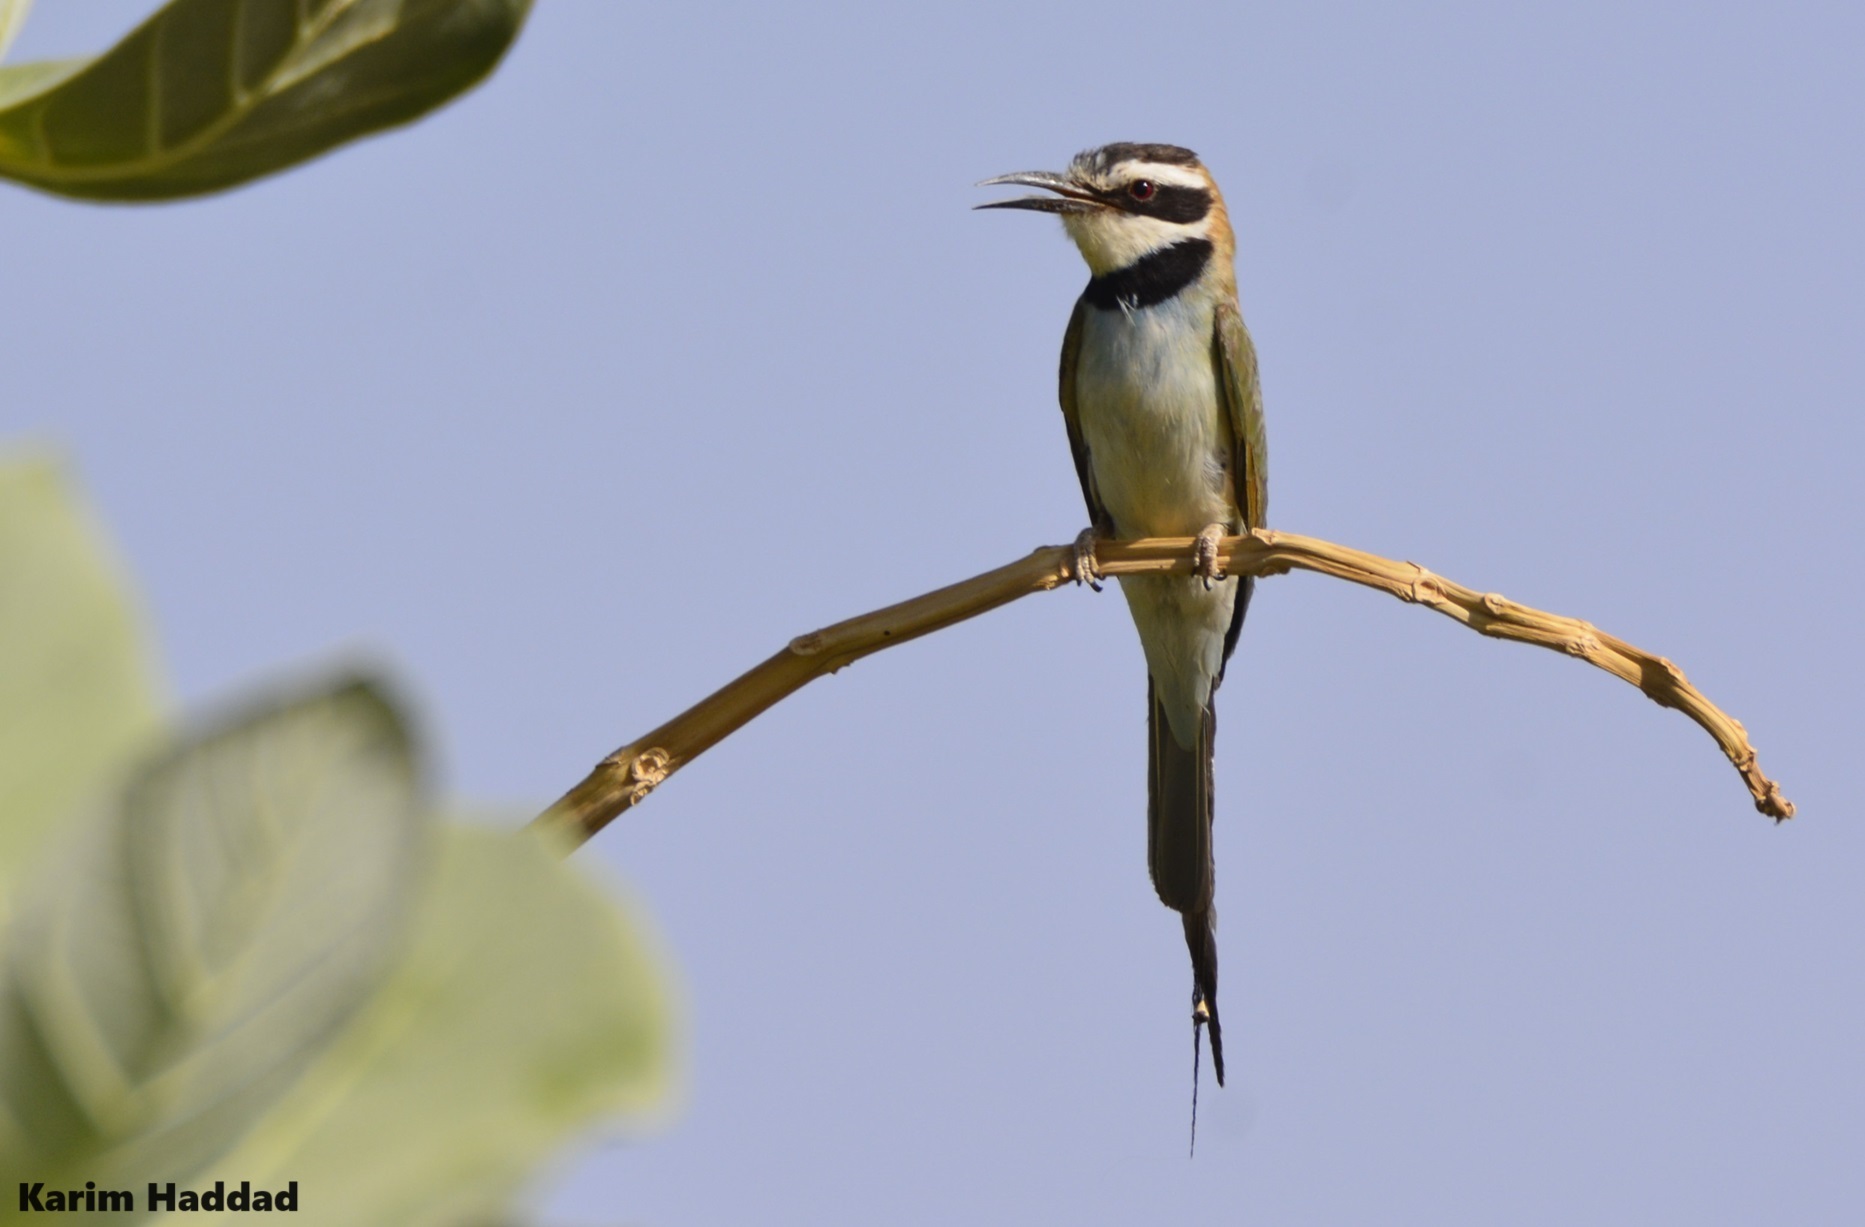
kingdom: Animalia
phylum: Chordata
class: Aves
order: Coraciiformes
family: Meropidae
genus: Merops
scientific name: Merops albicollis
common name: White-throated bee-eater
